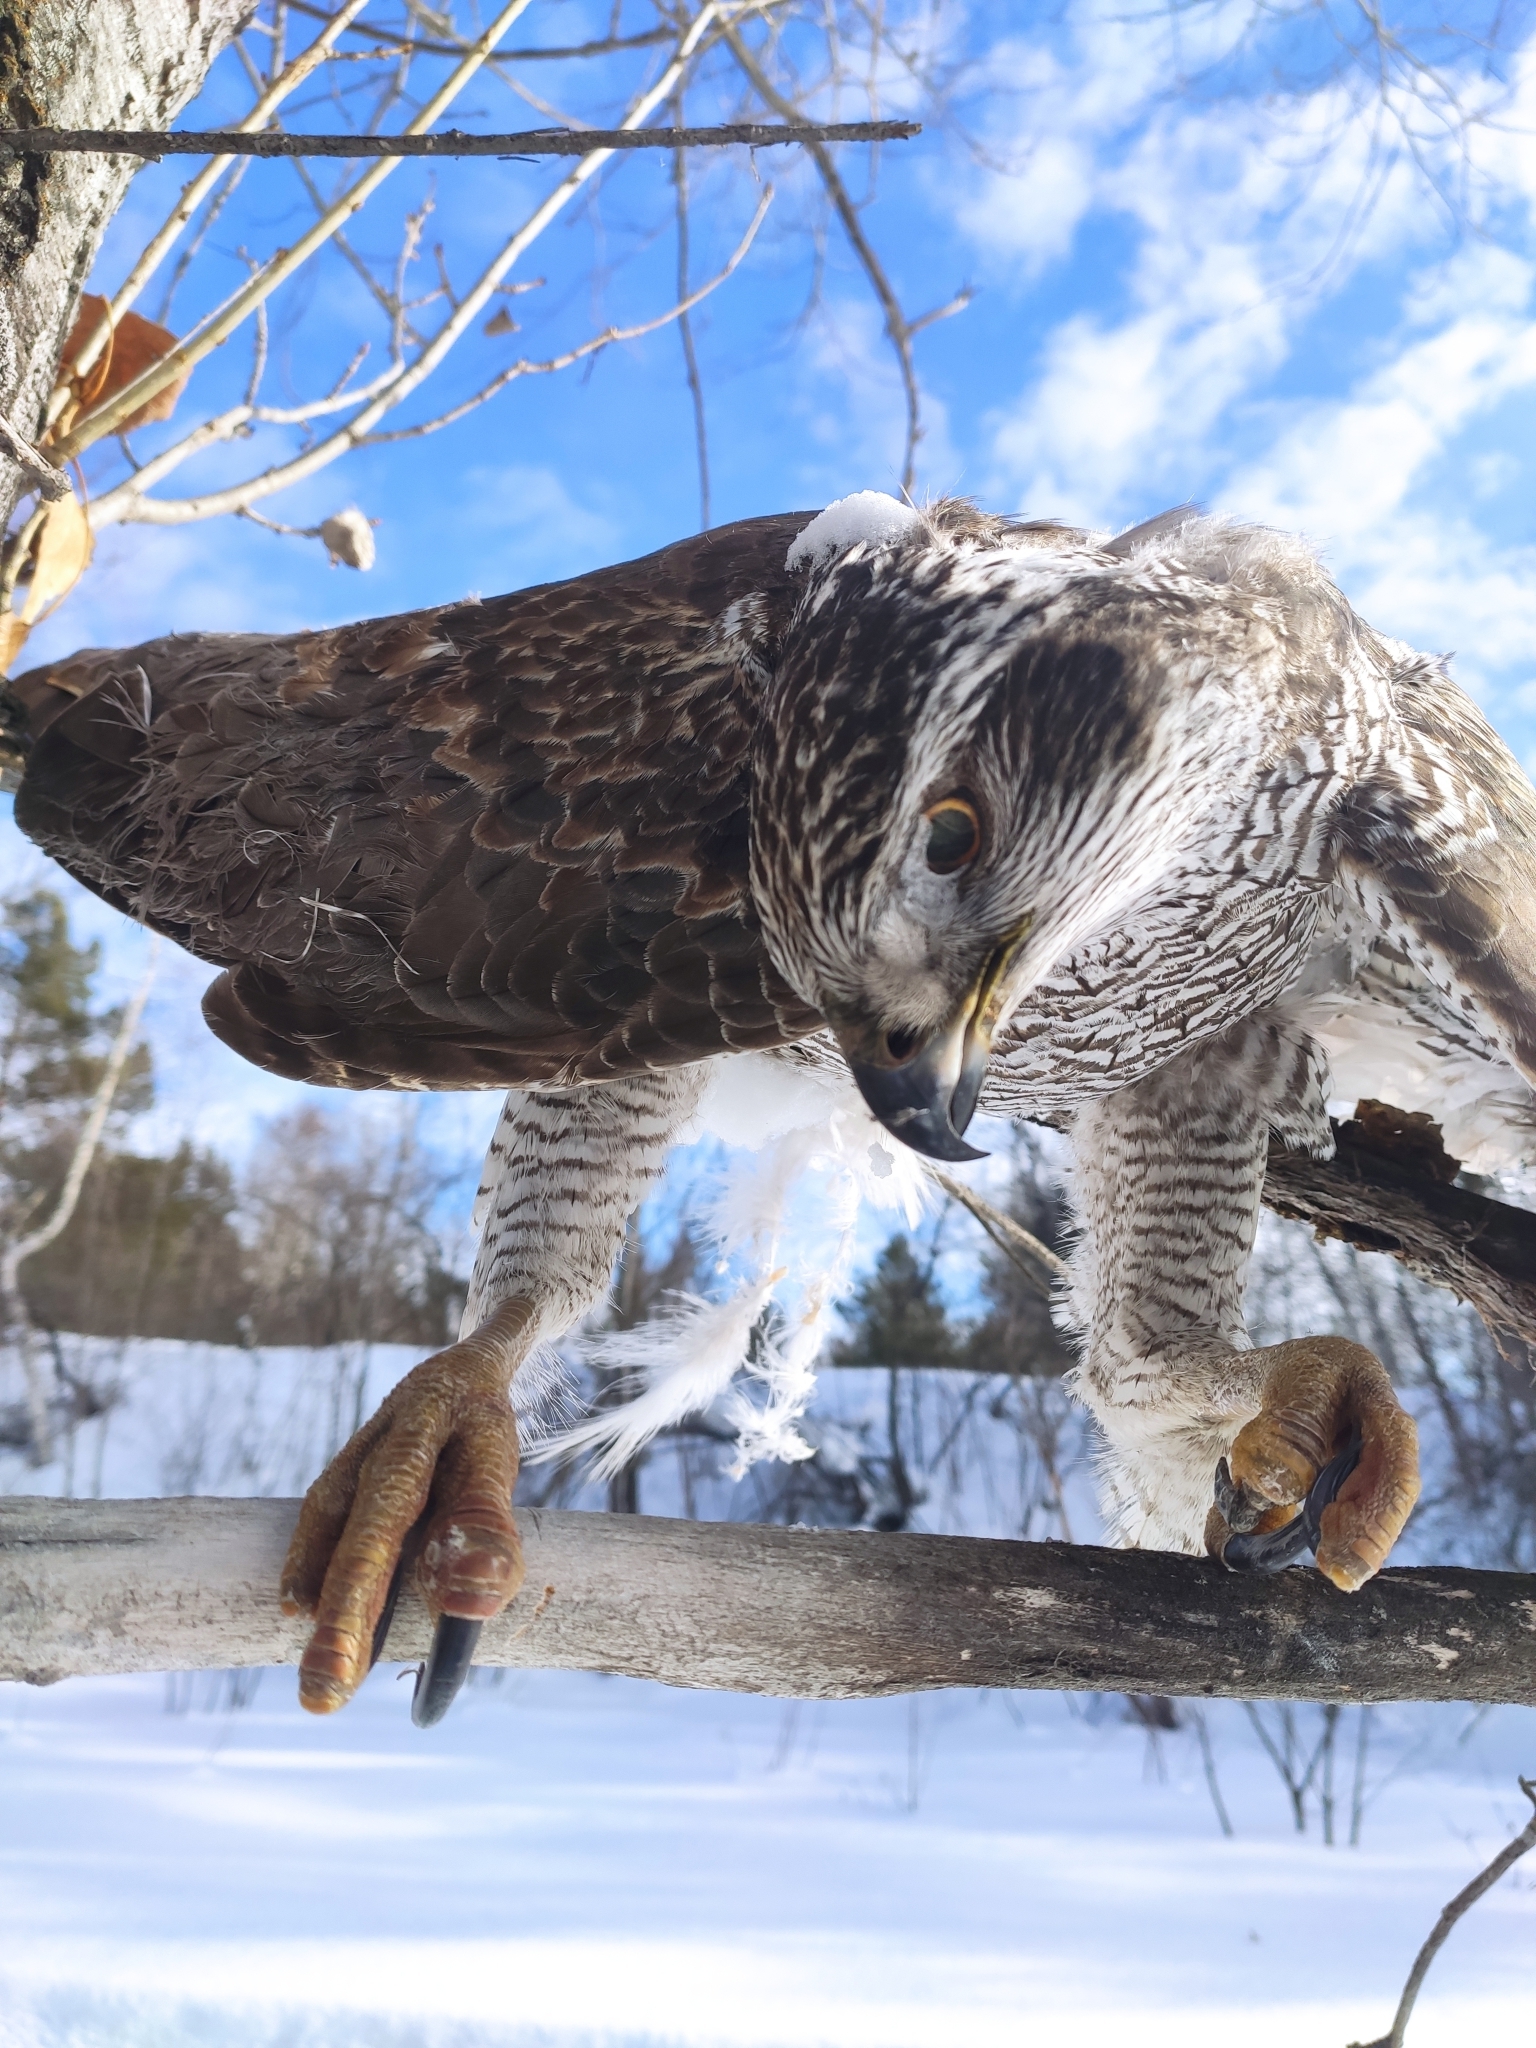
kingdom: Animalia
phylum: Chordata
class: Aves
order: Accipitriformes
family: Accipitridae
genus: Accipiter
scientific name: Accipiter gentilis
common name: Northern goshawk
